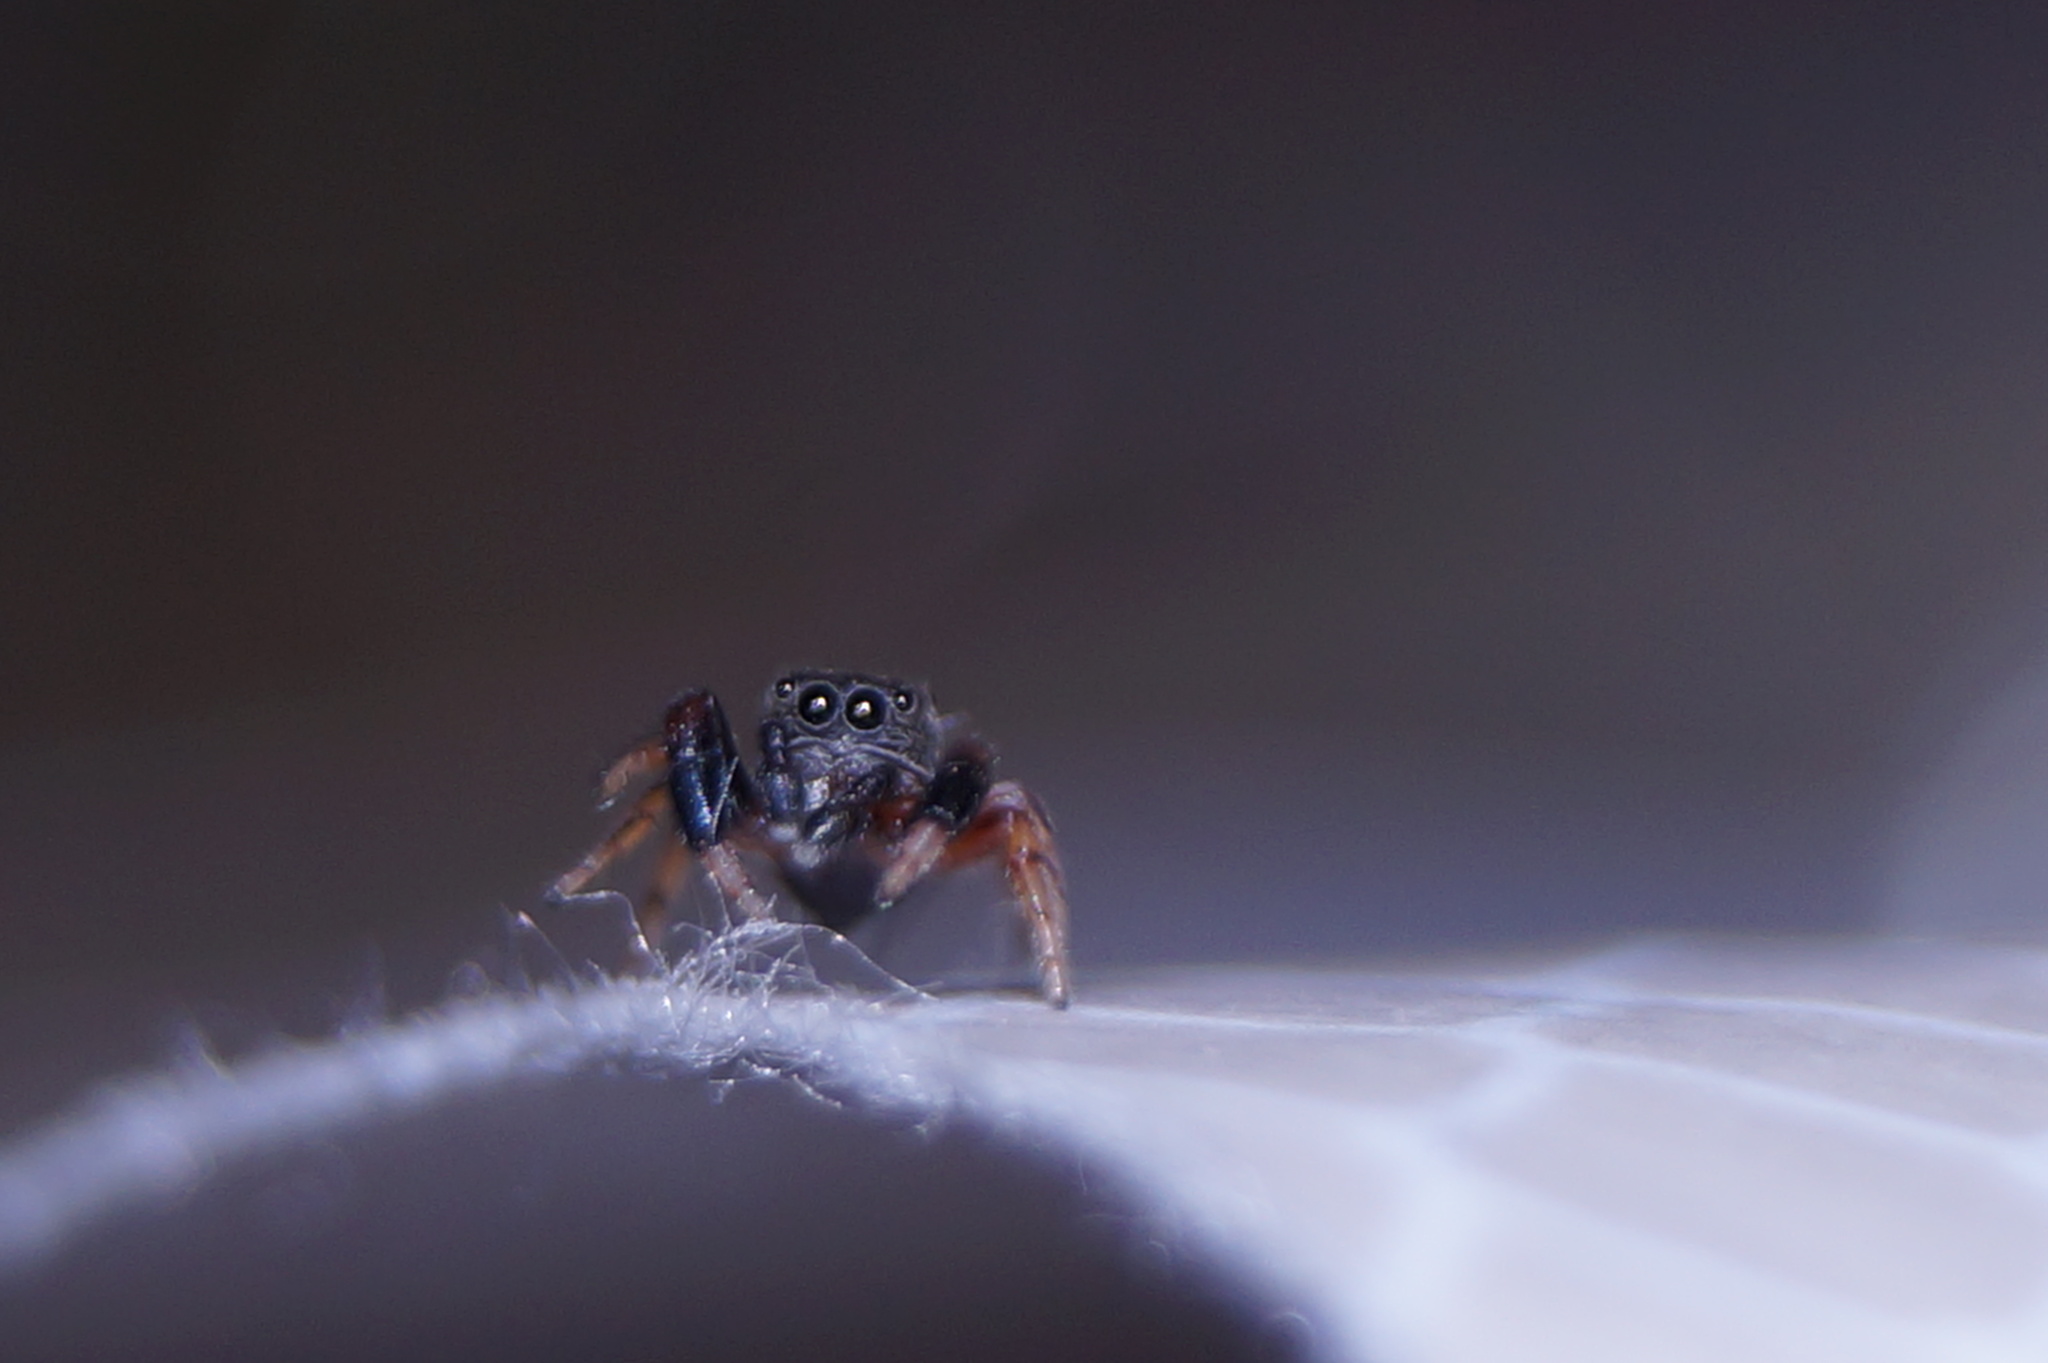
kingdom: Animalia
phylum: Arthropoda
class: Arachnida
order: Araneae
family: Salticidae
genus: Ballus
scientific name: Ballus chalybeius
